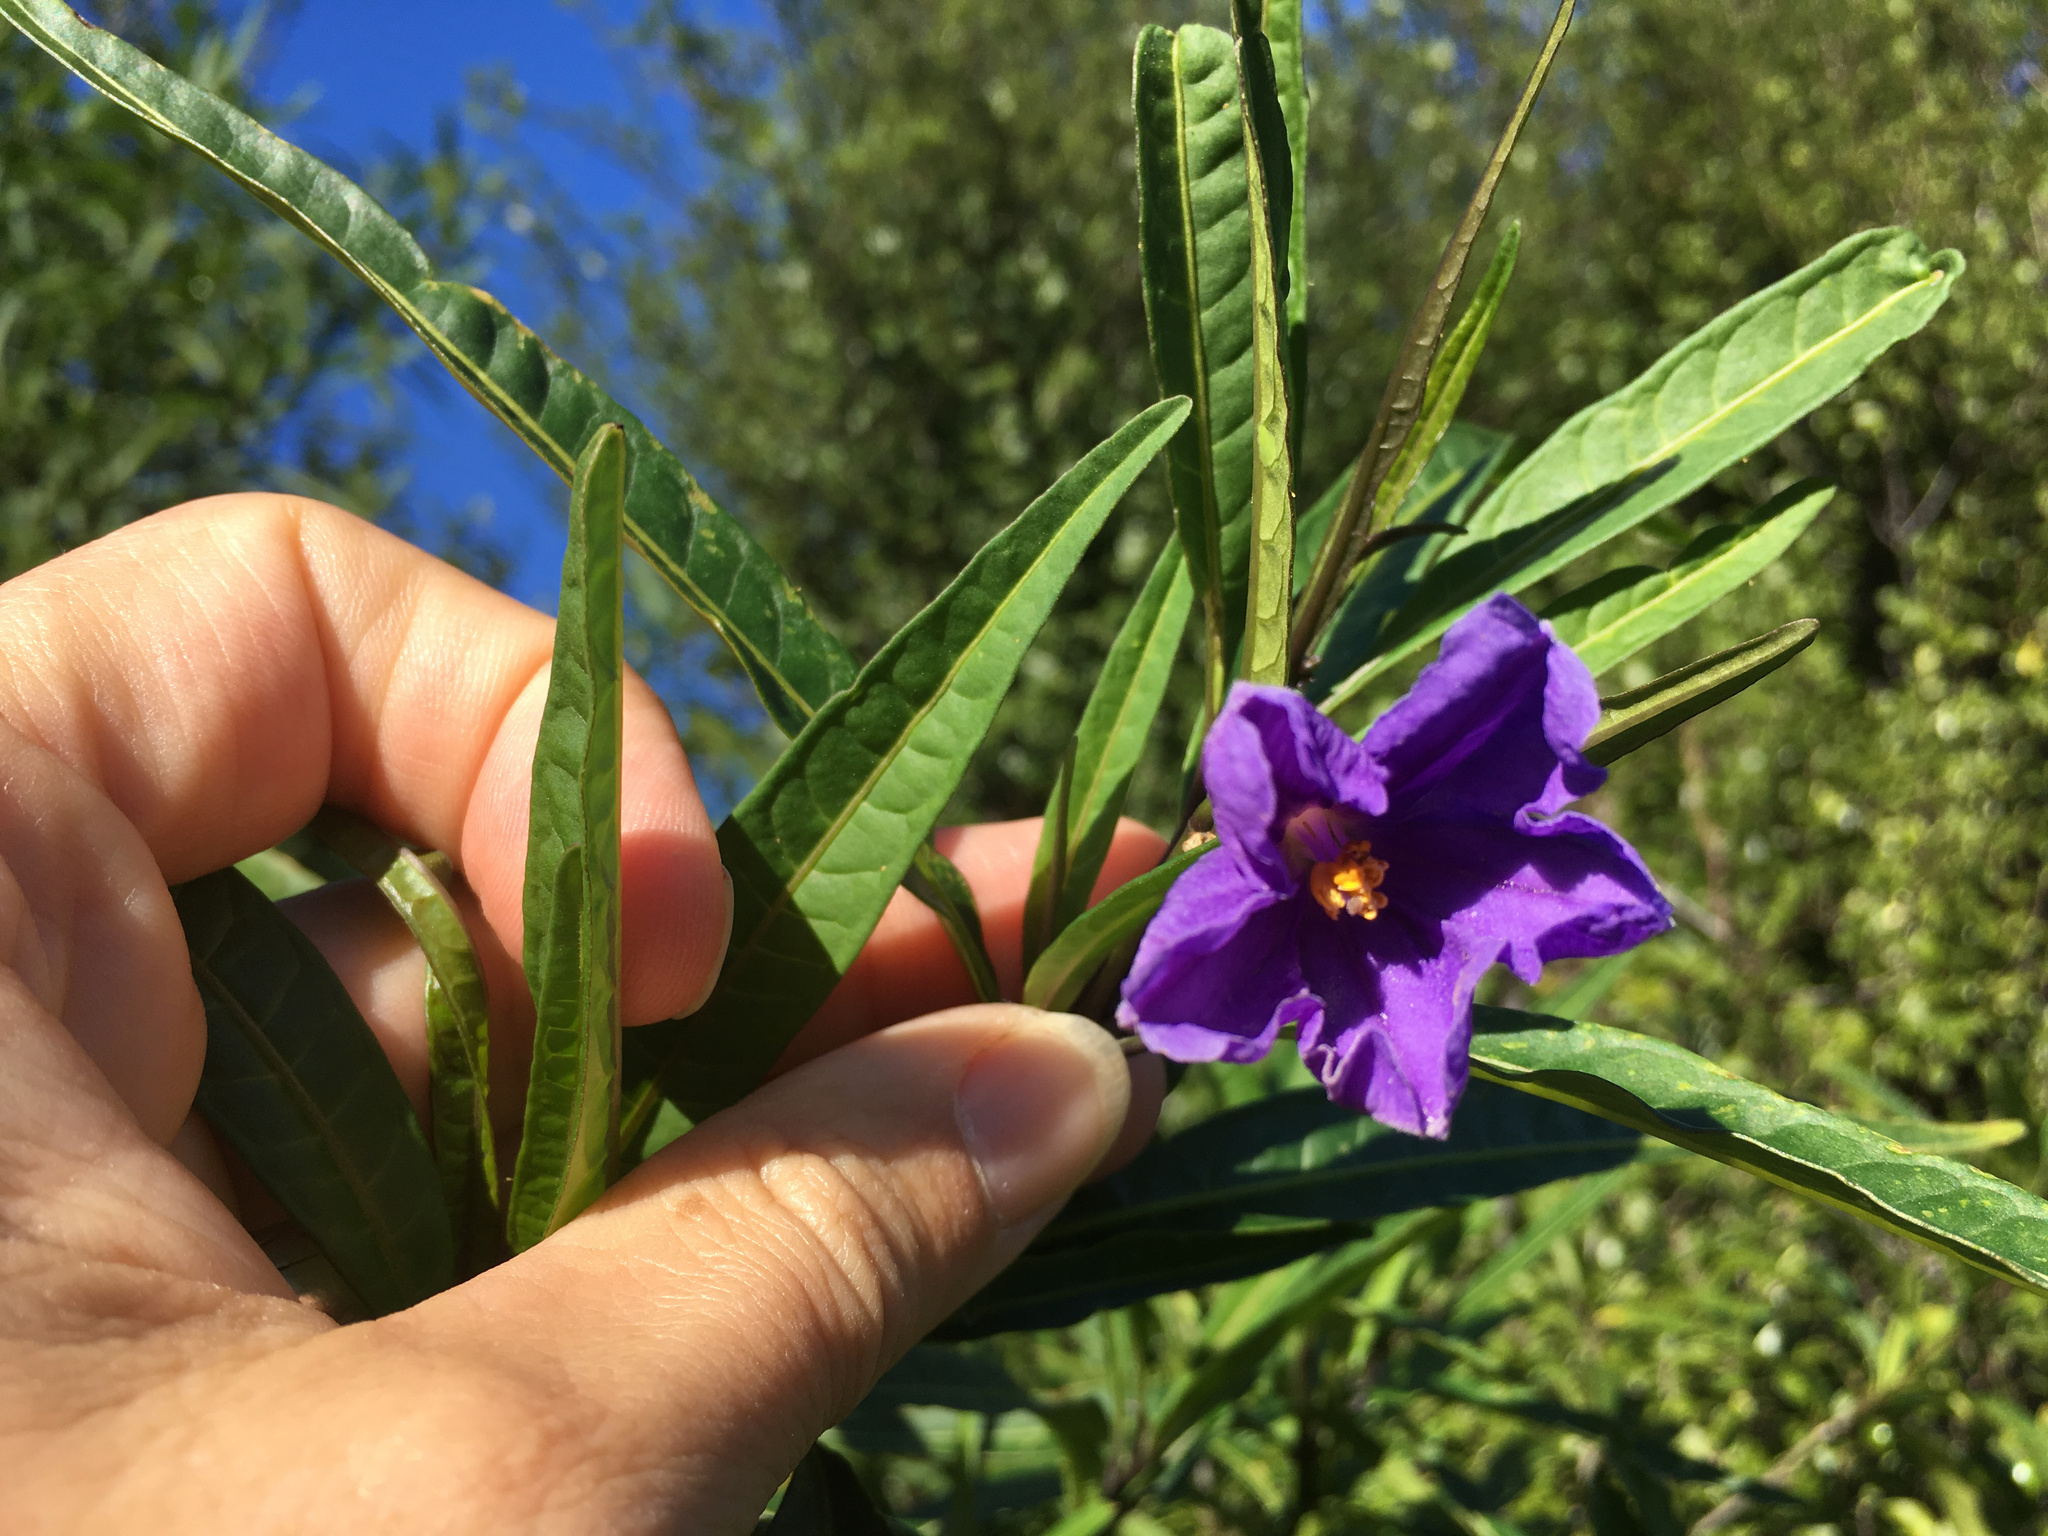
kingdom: Plantae
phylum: Tracheophyta
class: Magnoliopsida
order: Solanales
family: Solanaceae
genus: Solanum
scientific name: Solanum laciniatum
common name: Kangaroo-apple
